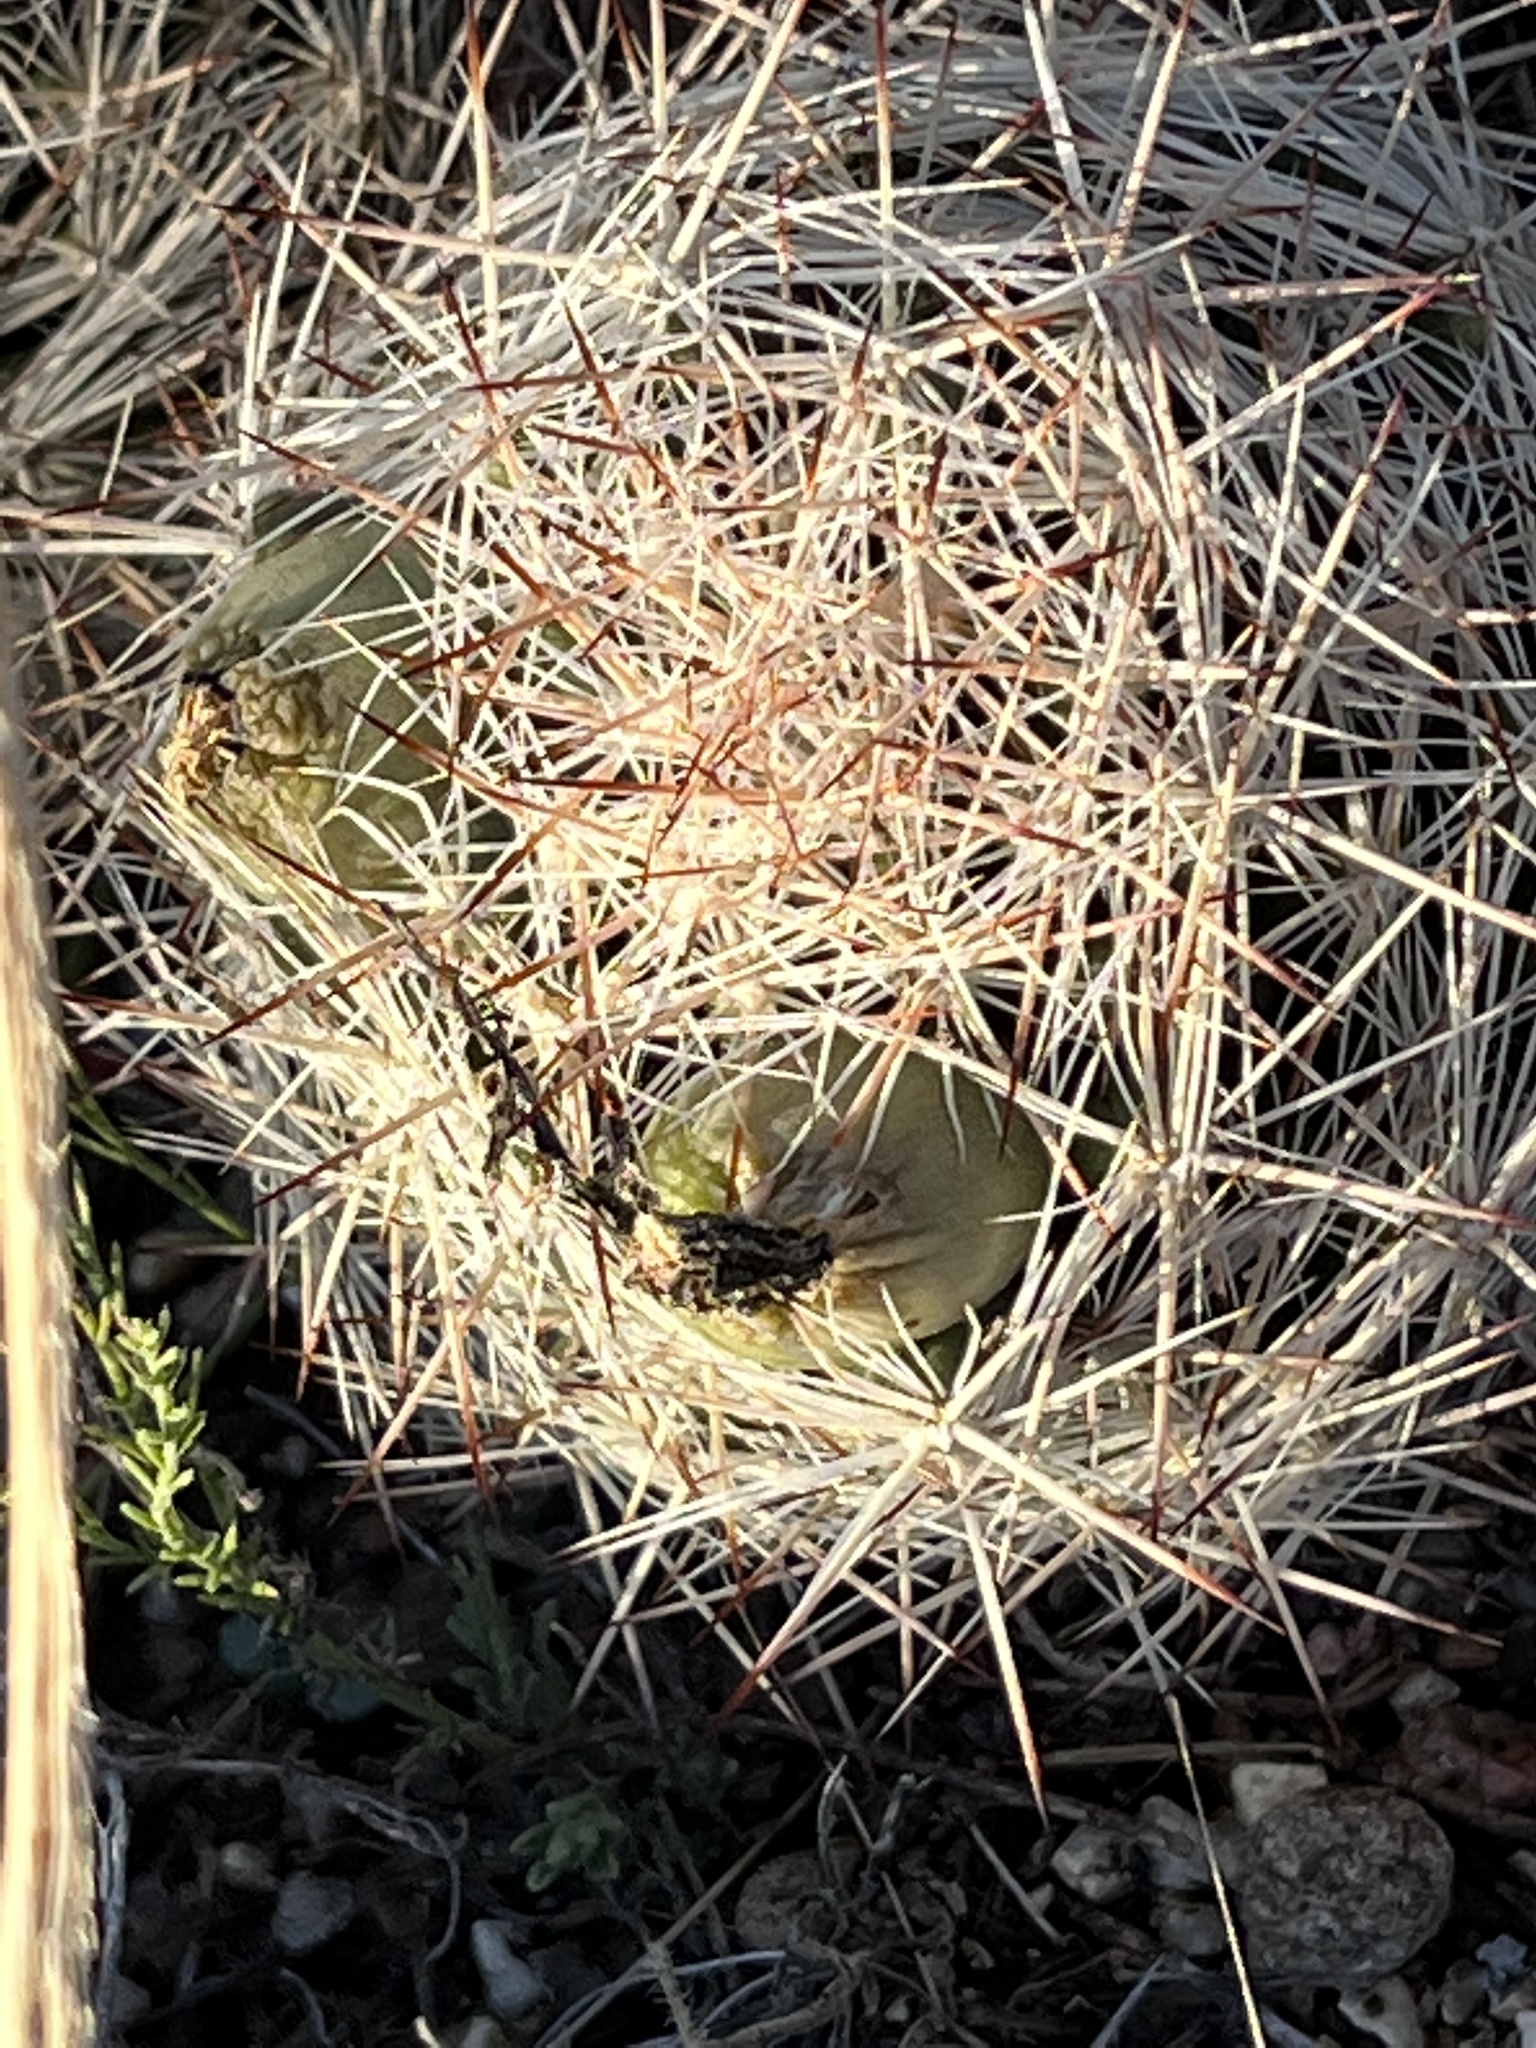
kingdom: Plantae
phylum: Tracheophyta
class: Magnoliopsida
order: Caryophyllales
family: Cactaceae
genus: Pelecyphora
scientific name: Pelecyphora vivipara
